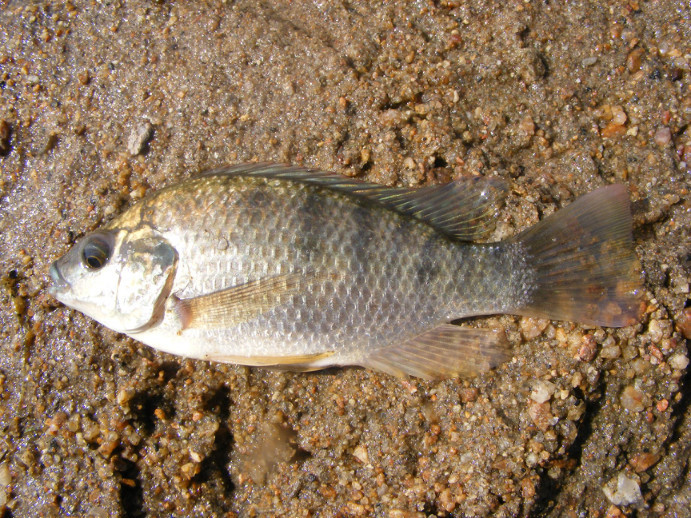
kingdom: Animalia
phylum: Chordata
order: Perciformes
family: Cichlidae
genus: Oreochromis
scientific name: Oreochromis mossambicus
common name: Mozambique tilapia
